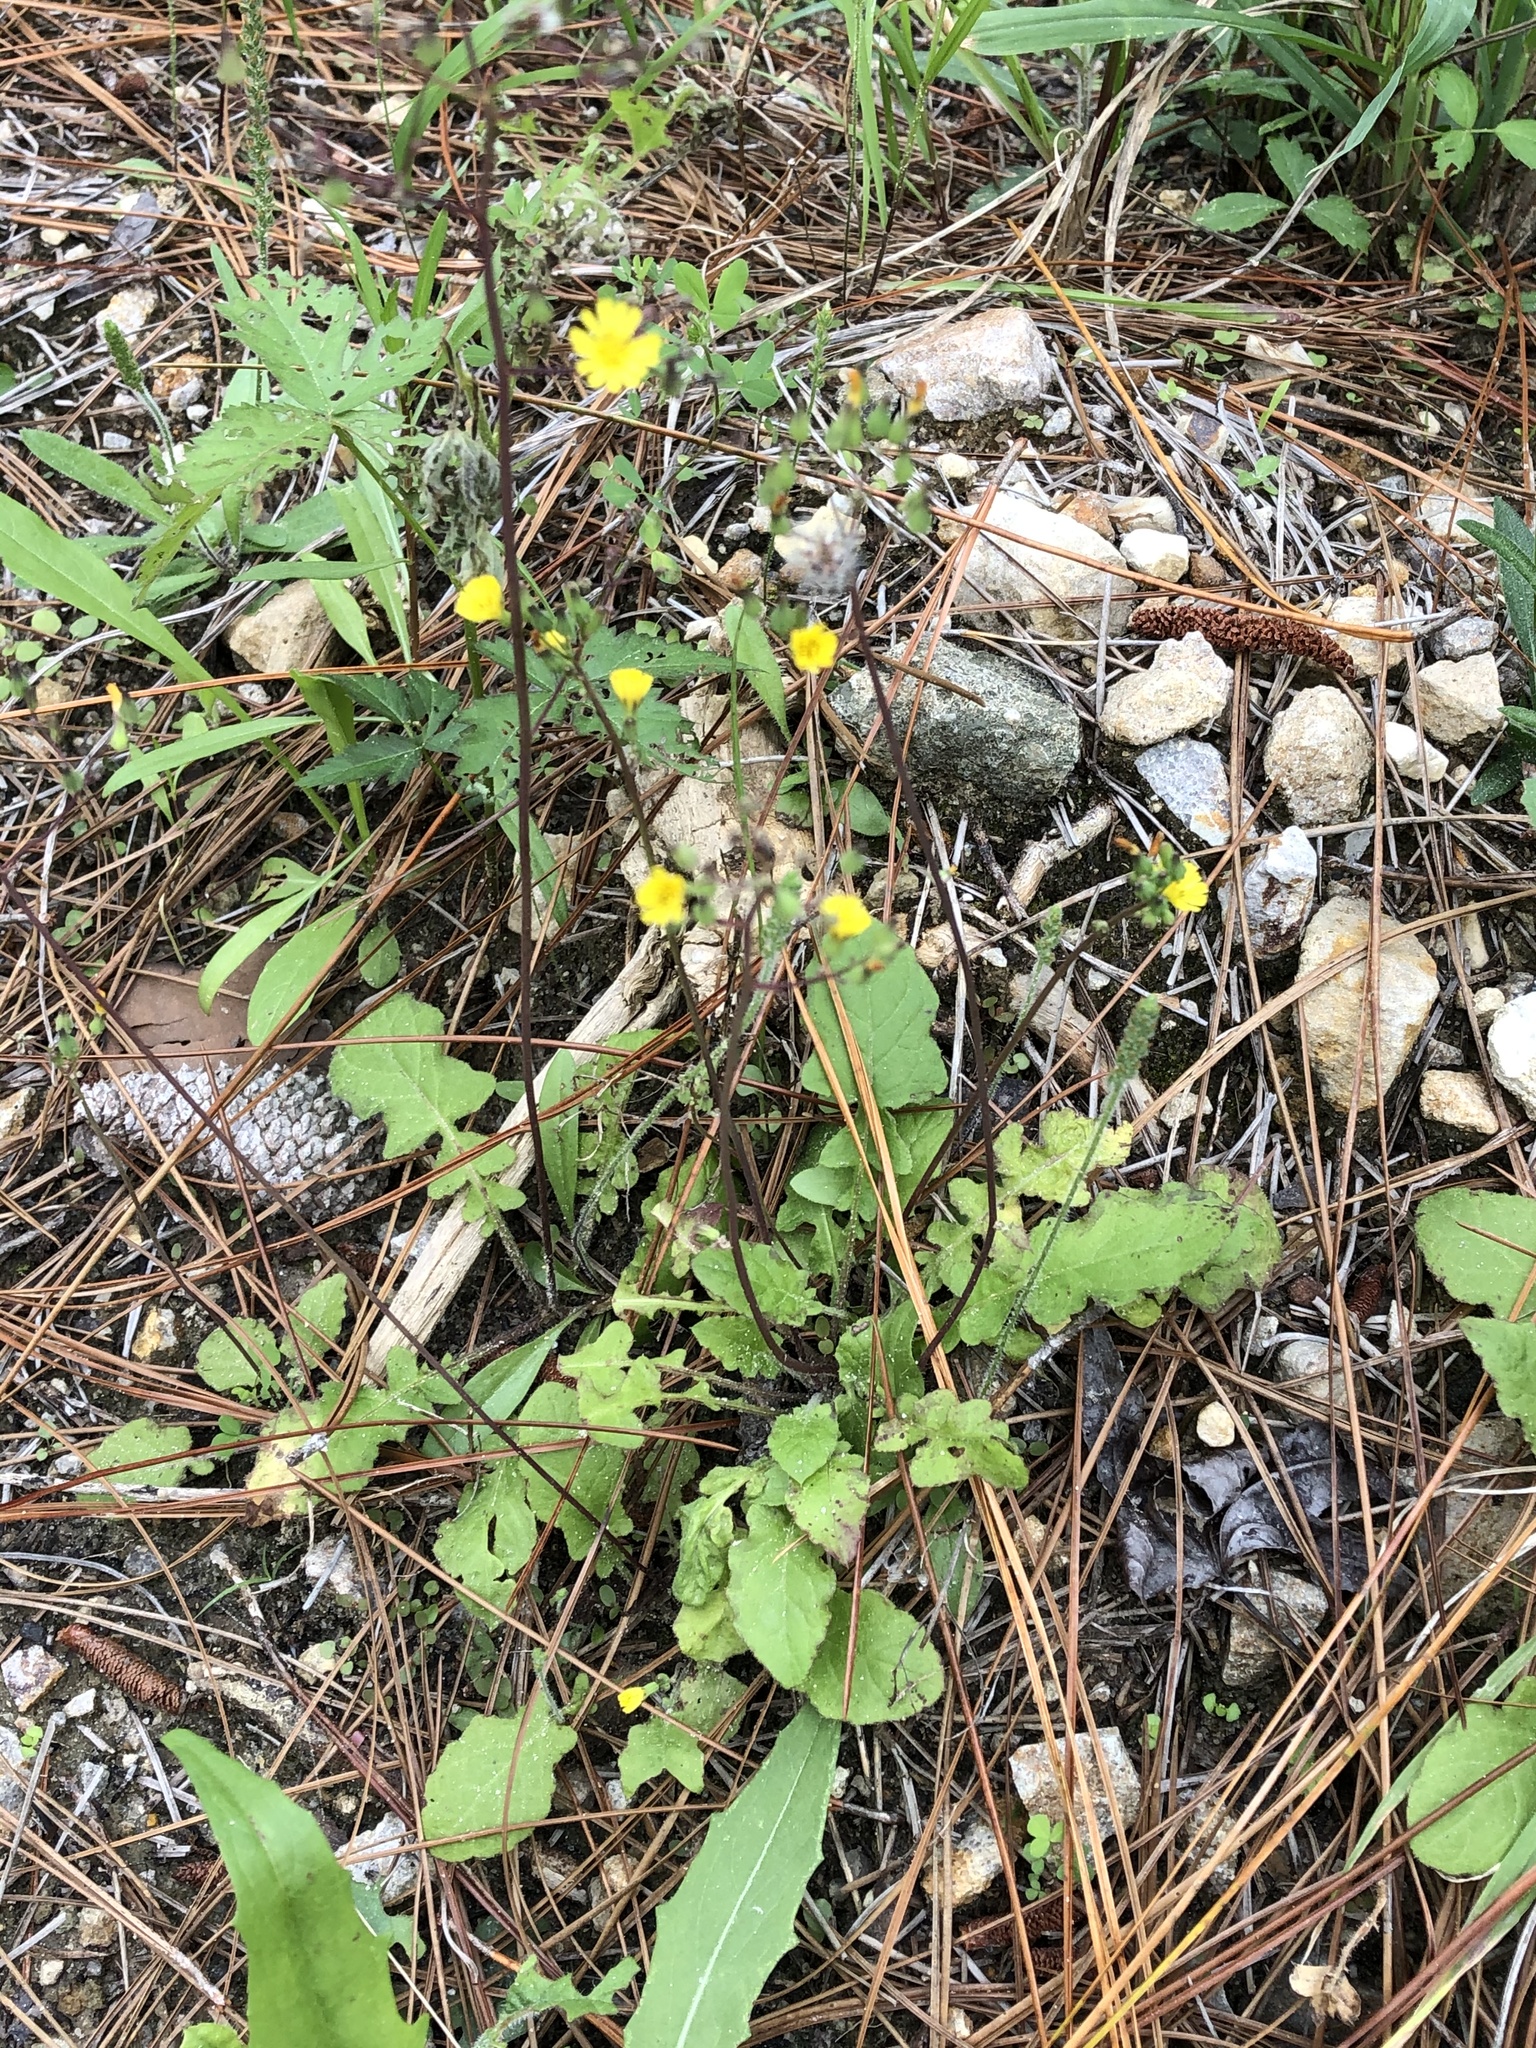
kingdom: Plantae
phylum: Tracheophyta
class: Magnoliopsida
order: Asterales
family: Asteraceae
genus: Youngia
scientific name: Youngia japonica
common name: Oriental false hawksbeard
